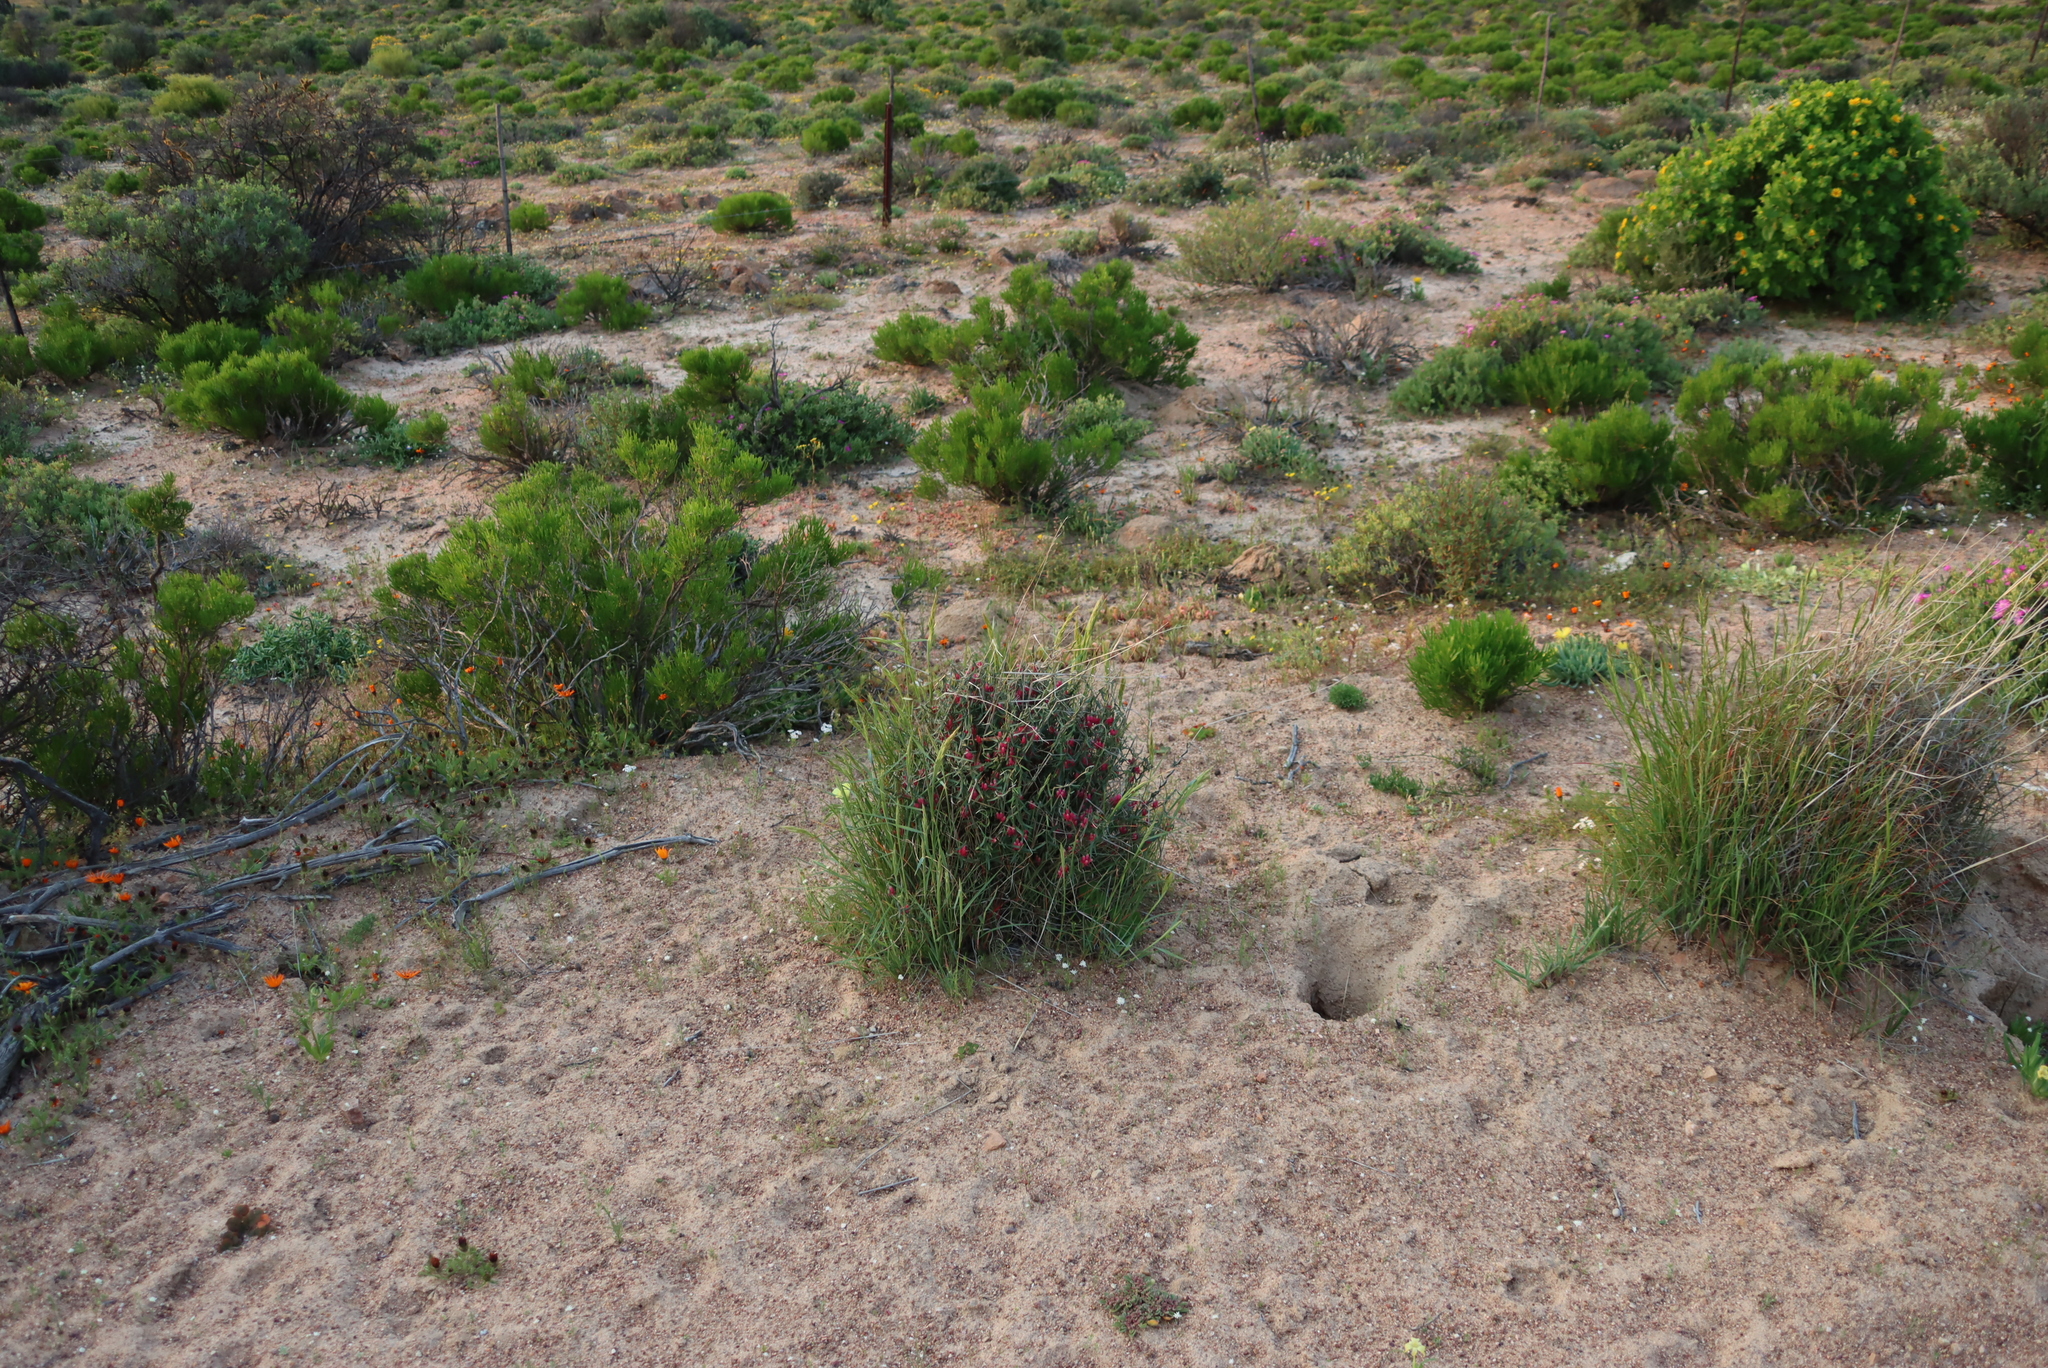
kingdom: Plantae
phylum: Tracheophyta
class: Magnoliopsida
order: Gentianales
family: Apocynaceae
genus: Microloma
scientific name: Microloma sagittatum
